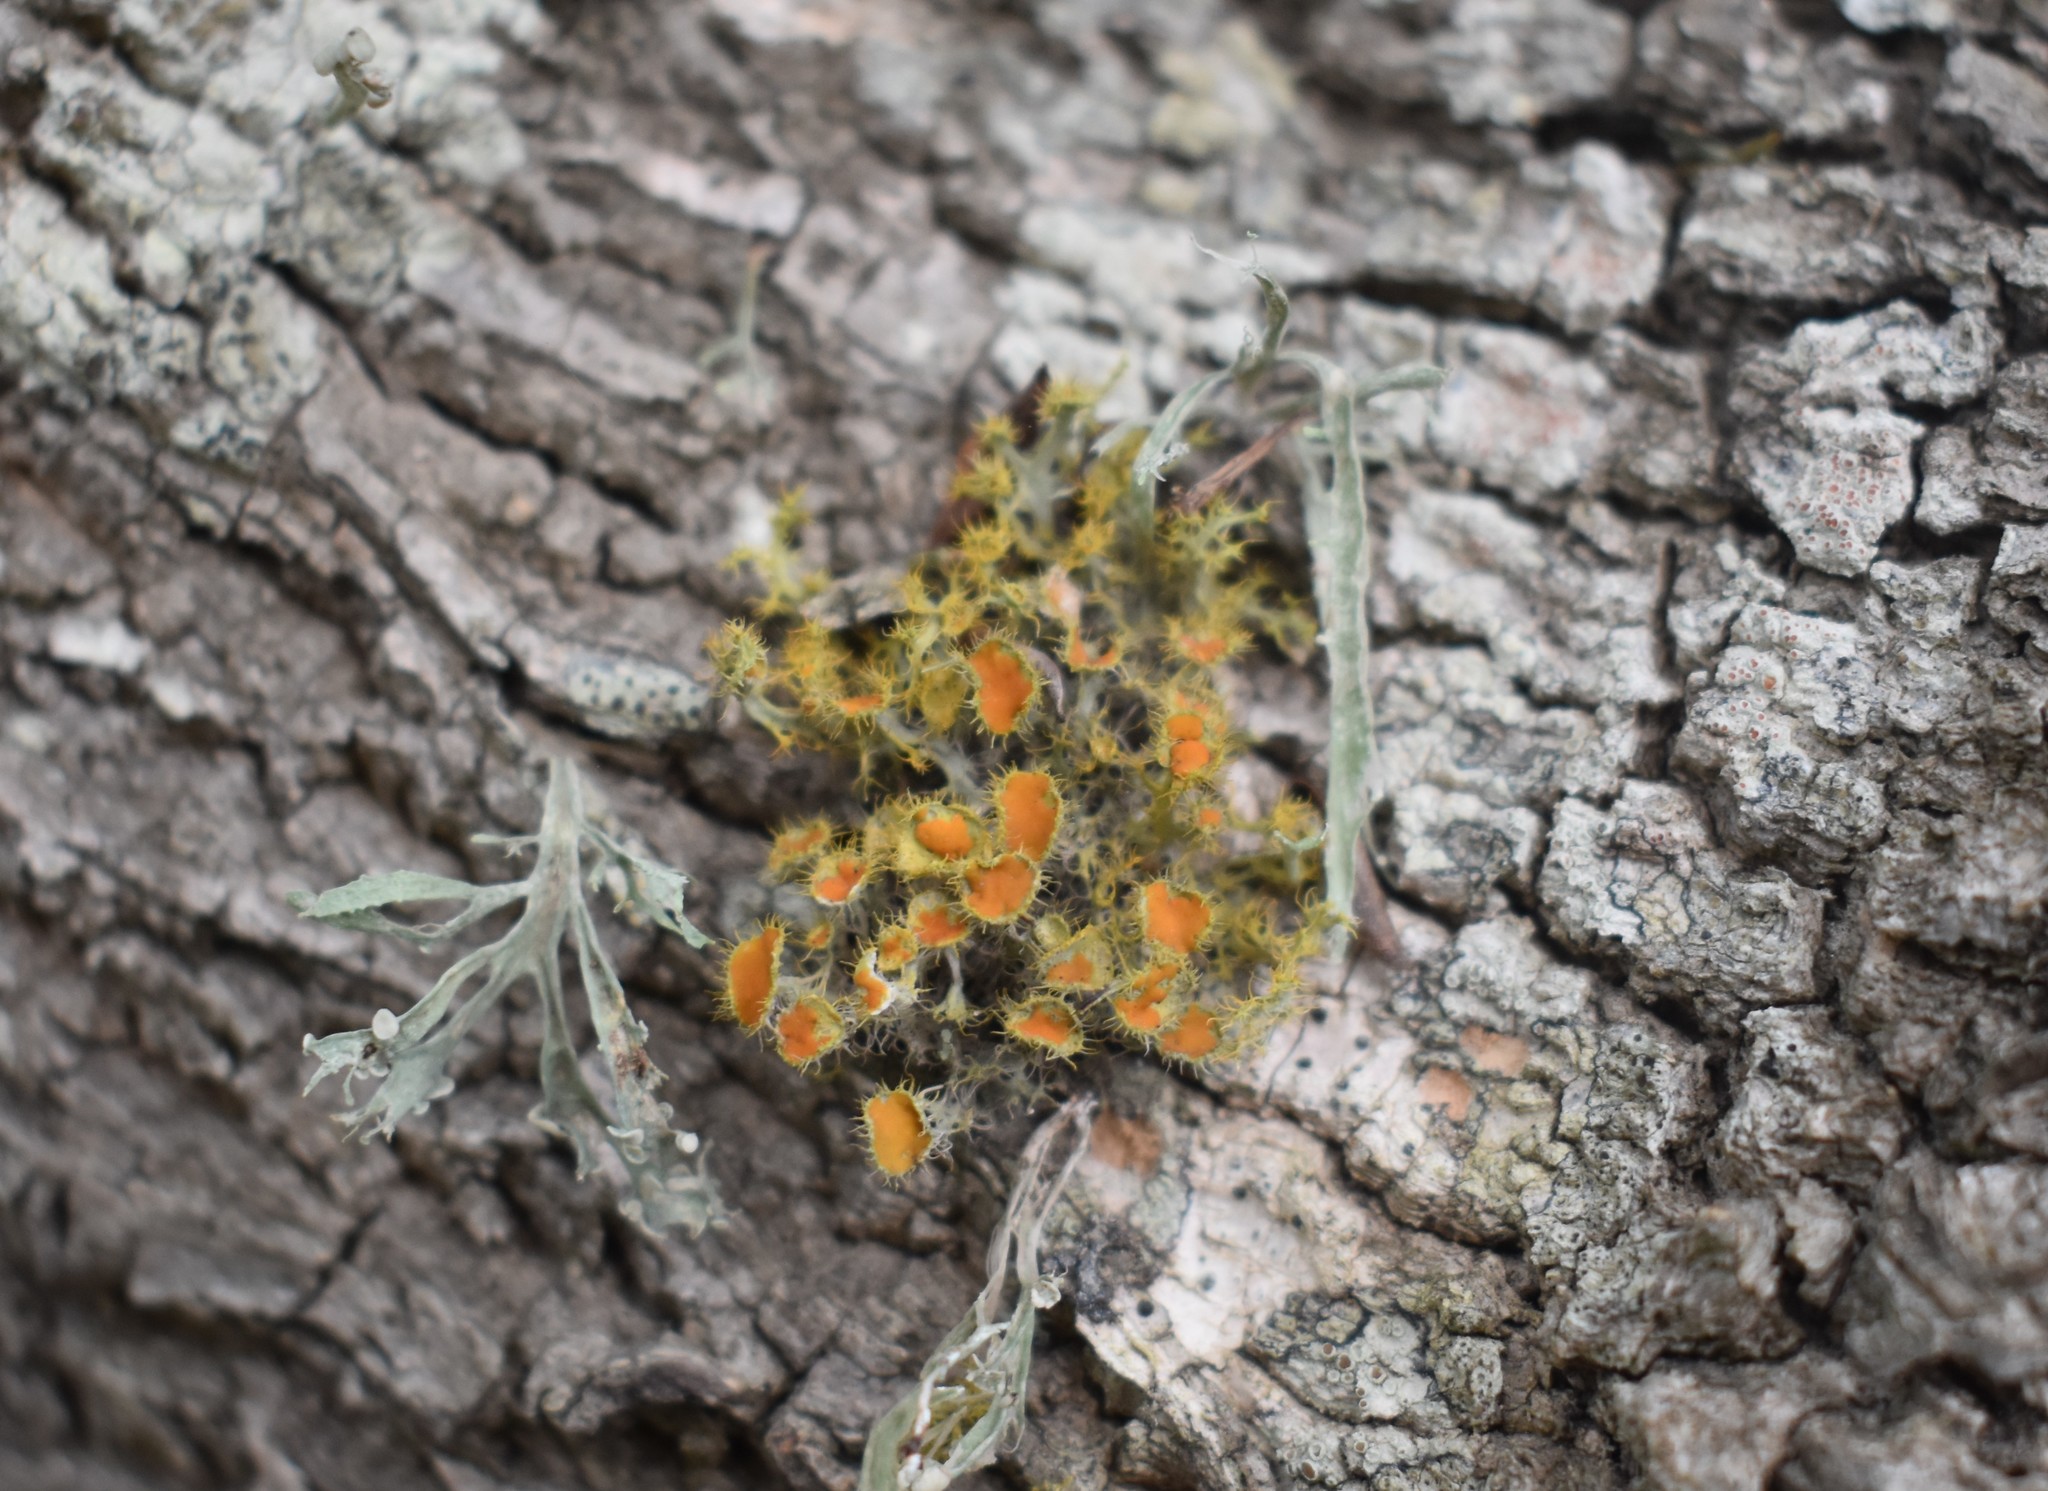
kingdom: Fungi
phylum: Ascomycota
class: Lecanoromycetes
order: Teloschistales
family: Teloschistaceae
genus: Niorma
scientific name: Niorma chrysophthalma
